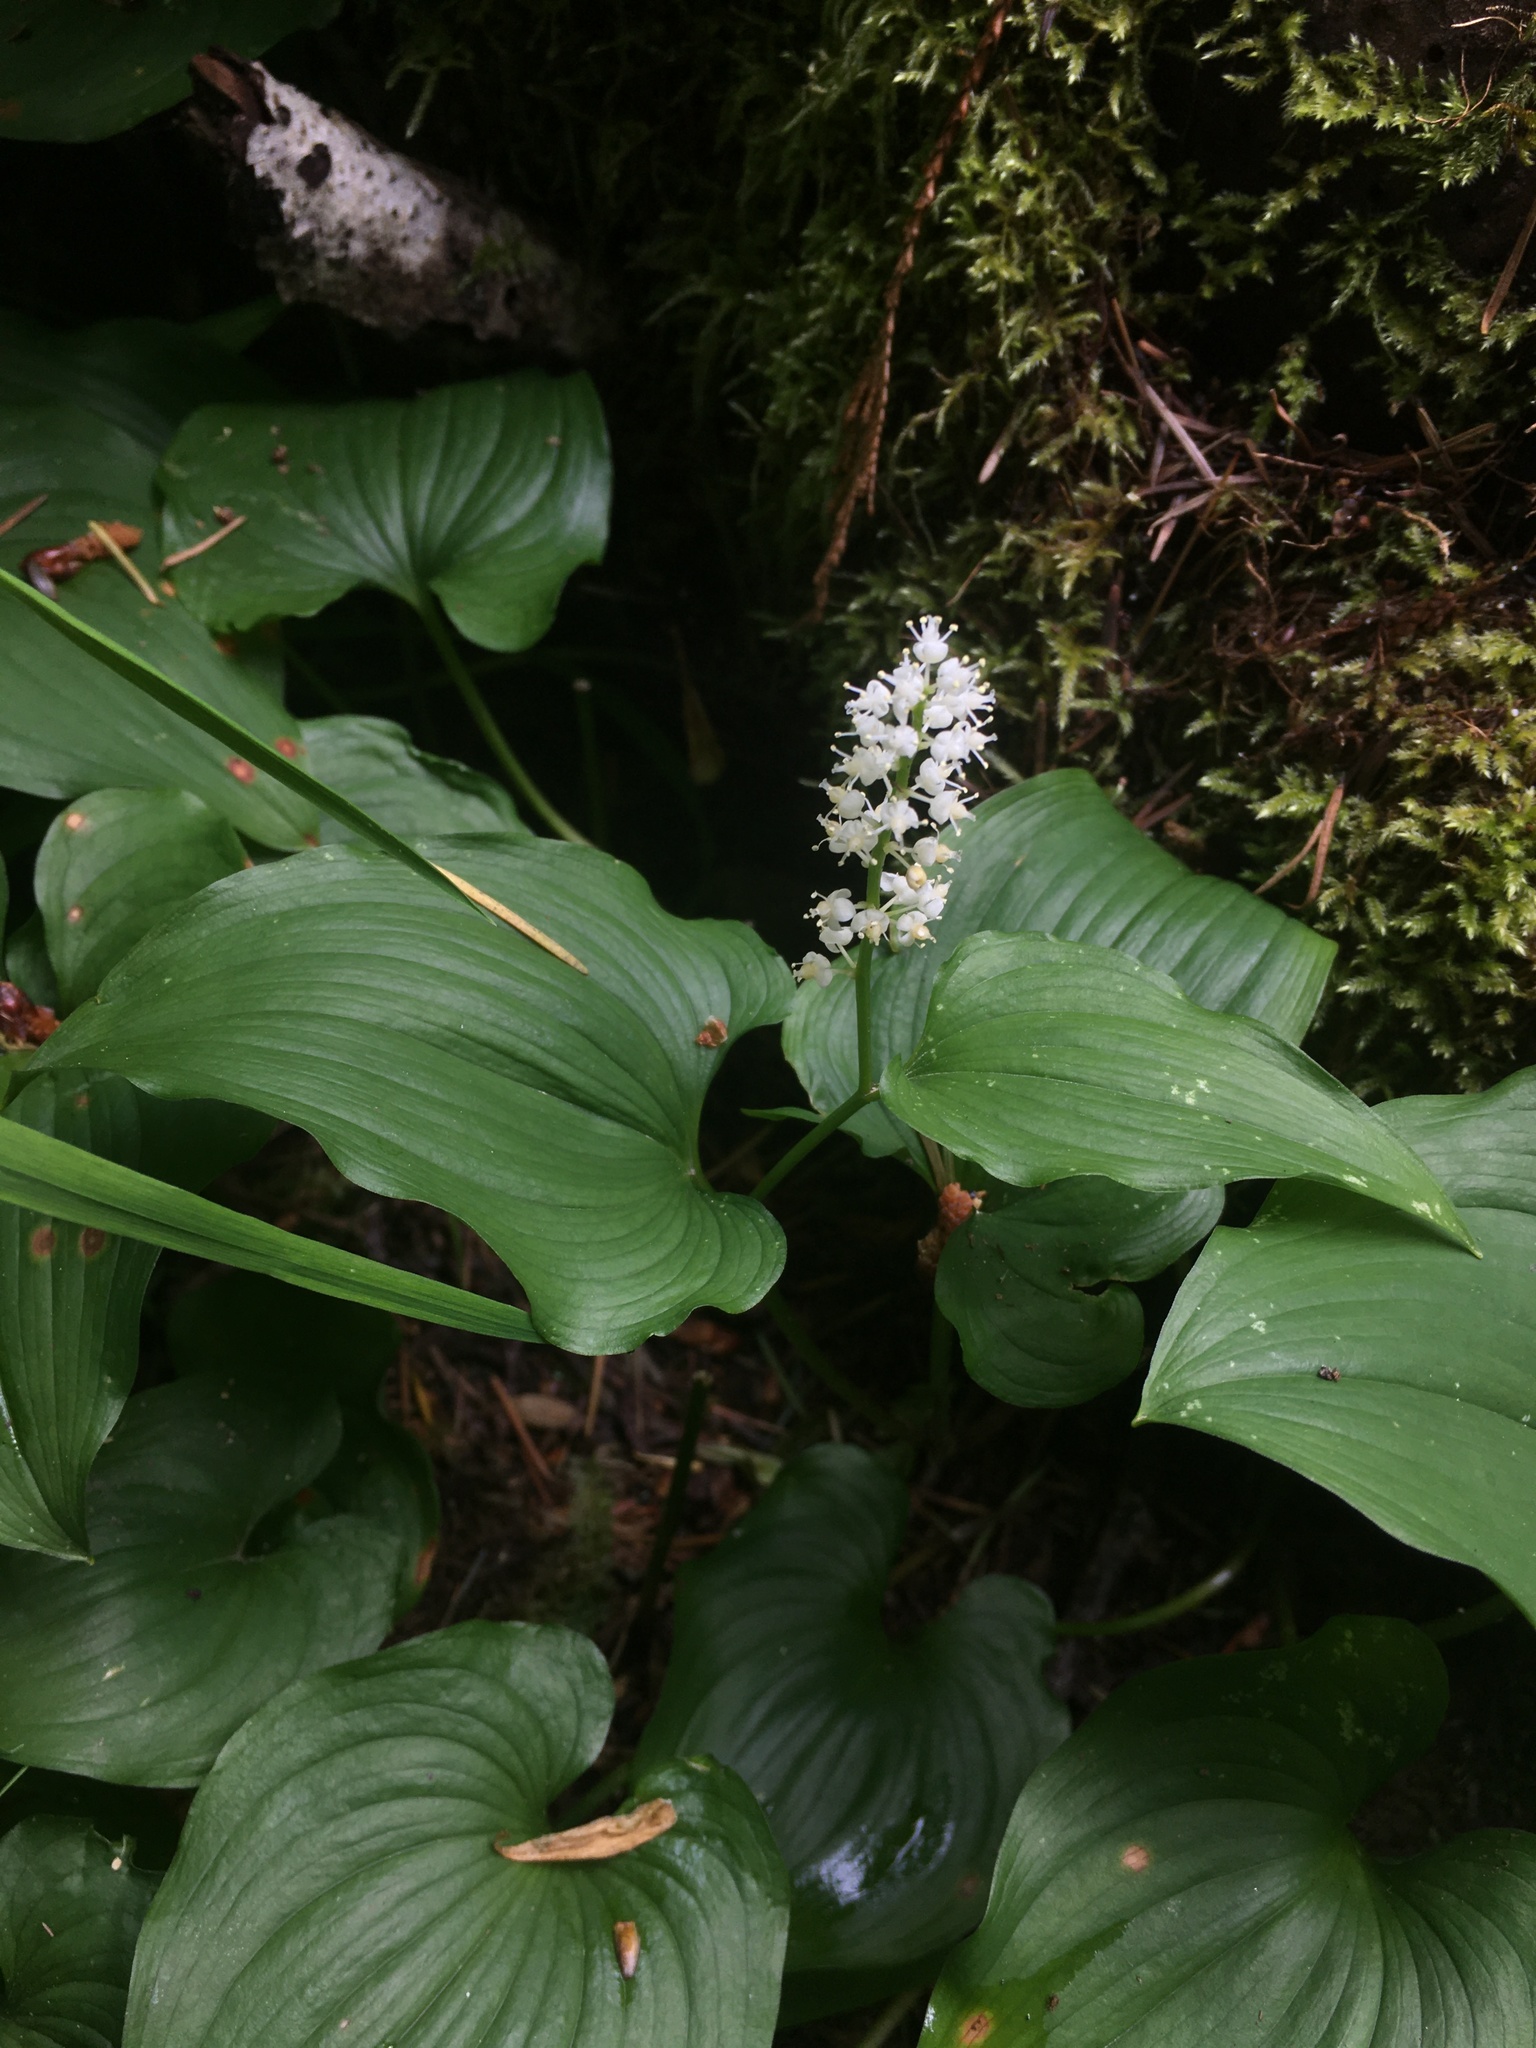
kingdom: Plantae
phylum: Tracheophyta
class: Liliopsida
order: Asparagales
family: Asparagaceae
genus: Maianthemum
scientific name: Maianthemum dilatatum
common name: False lily-of-the-valley
